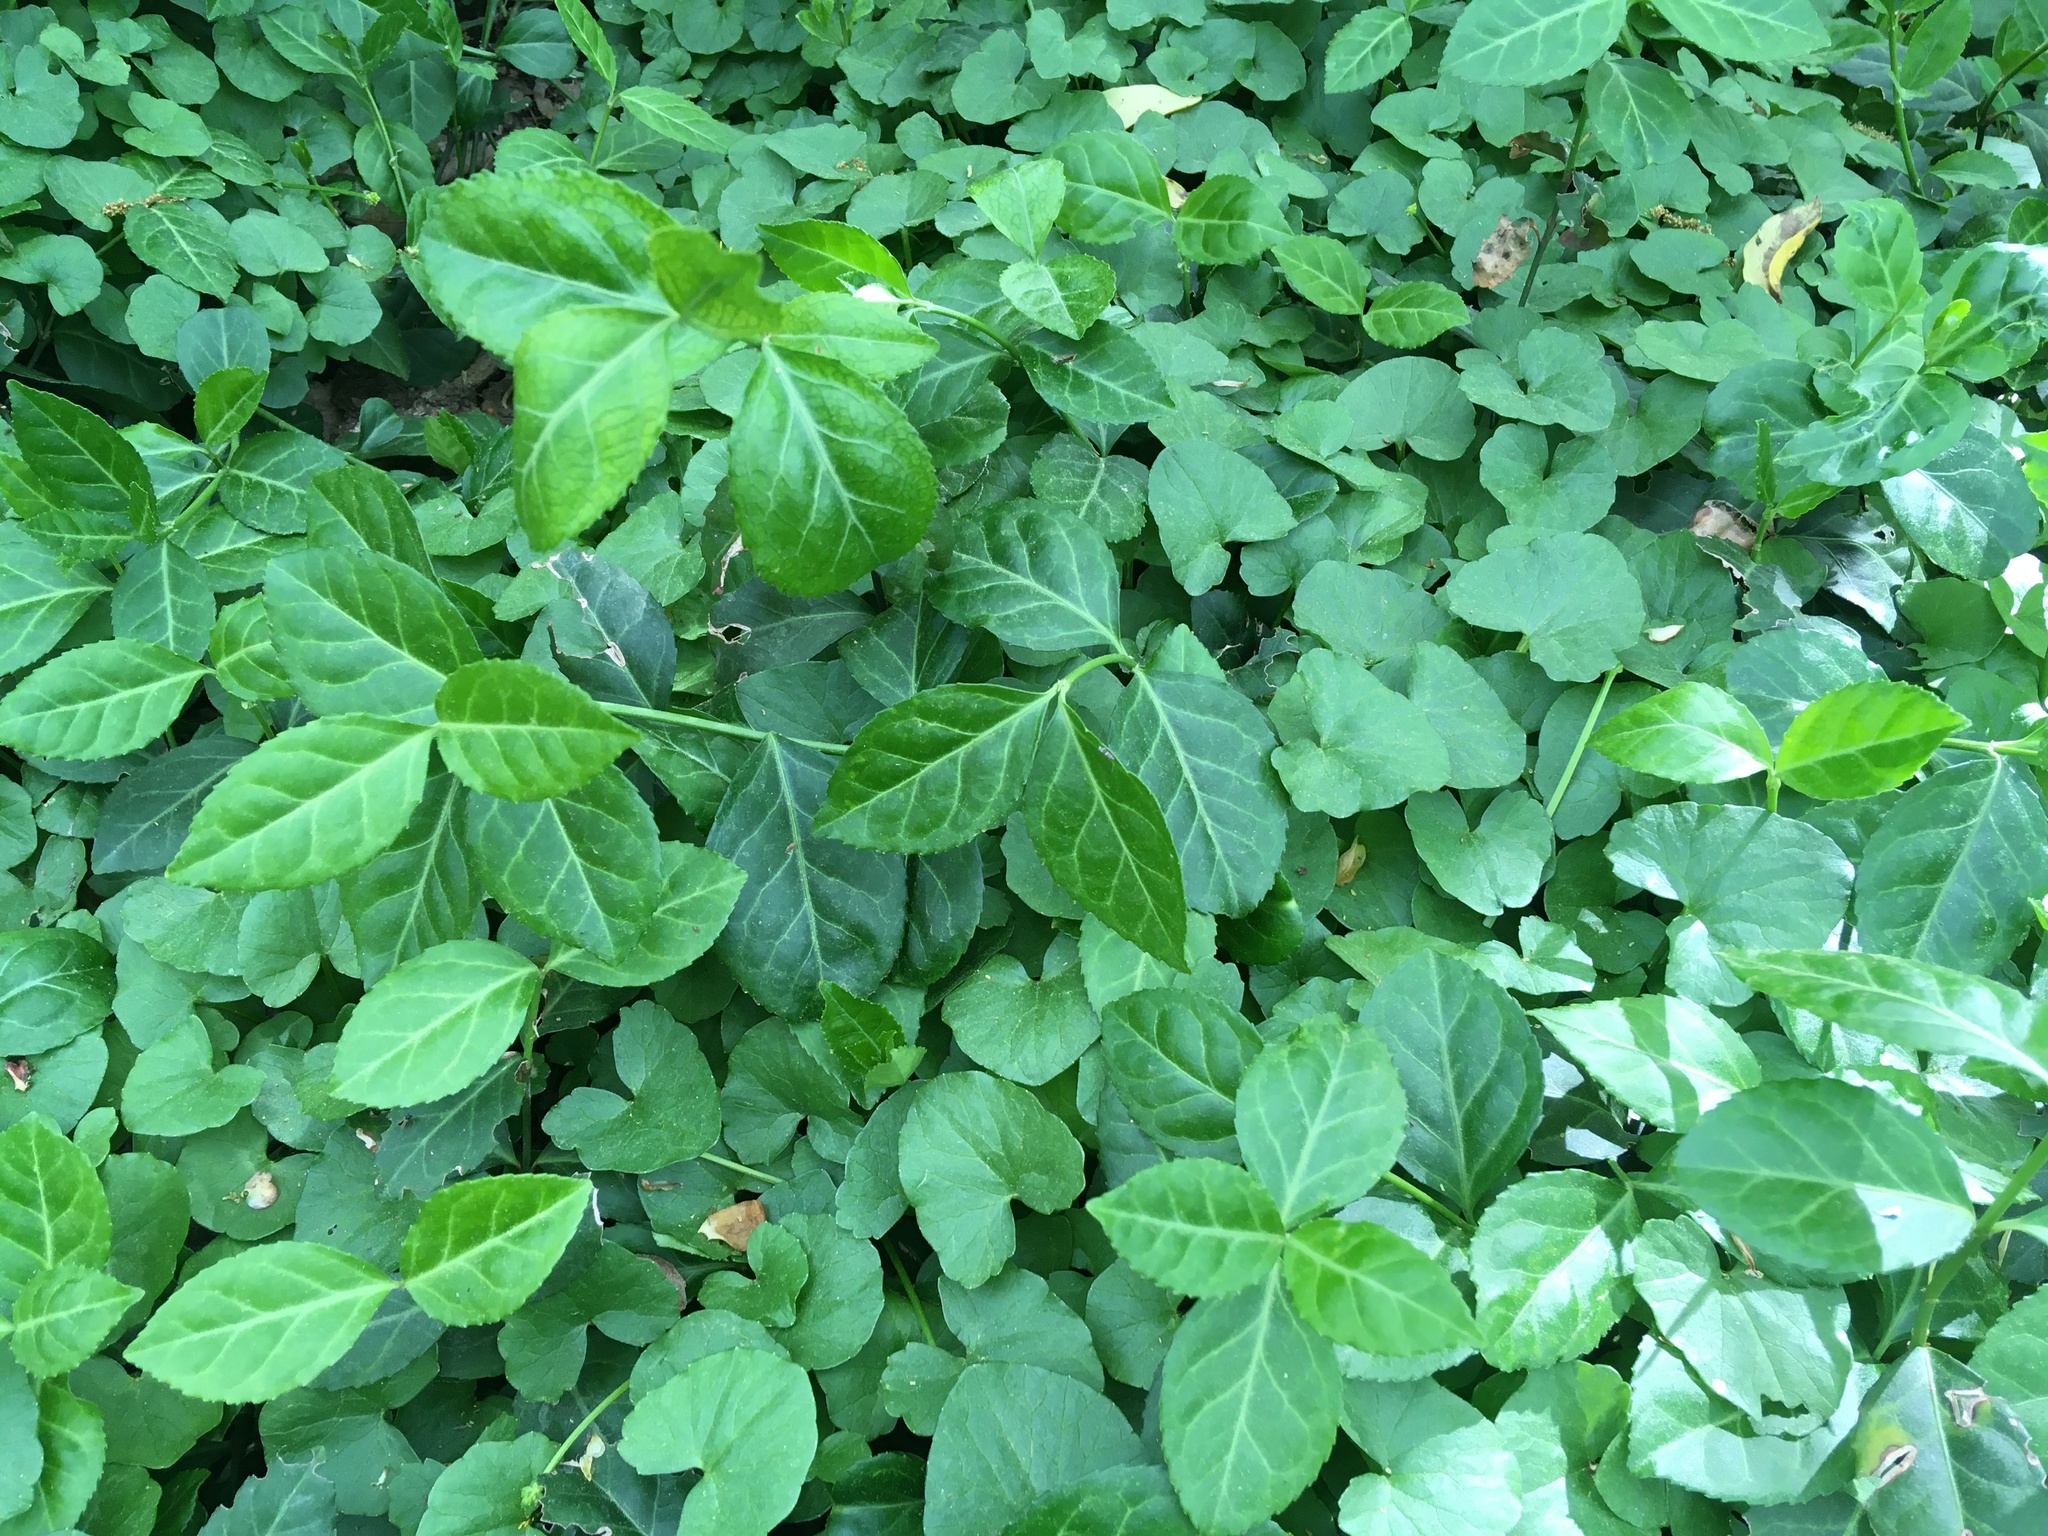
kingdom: Plantae
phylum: Tracheophyta
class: Magnoliopsida
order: Celastrales
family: Celastraceae
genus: Euonymus
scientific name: Euonymus fortunei
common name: Climbing euonymus
